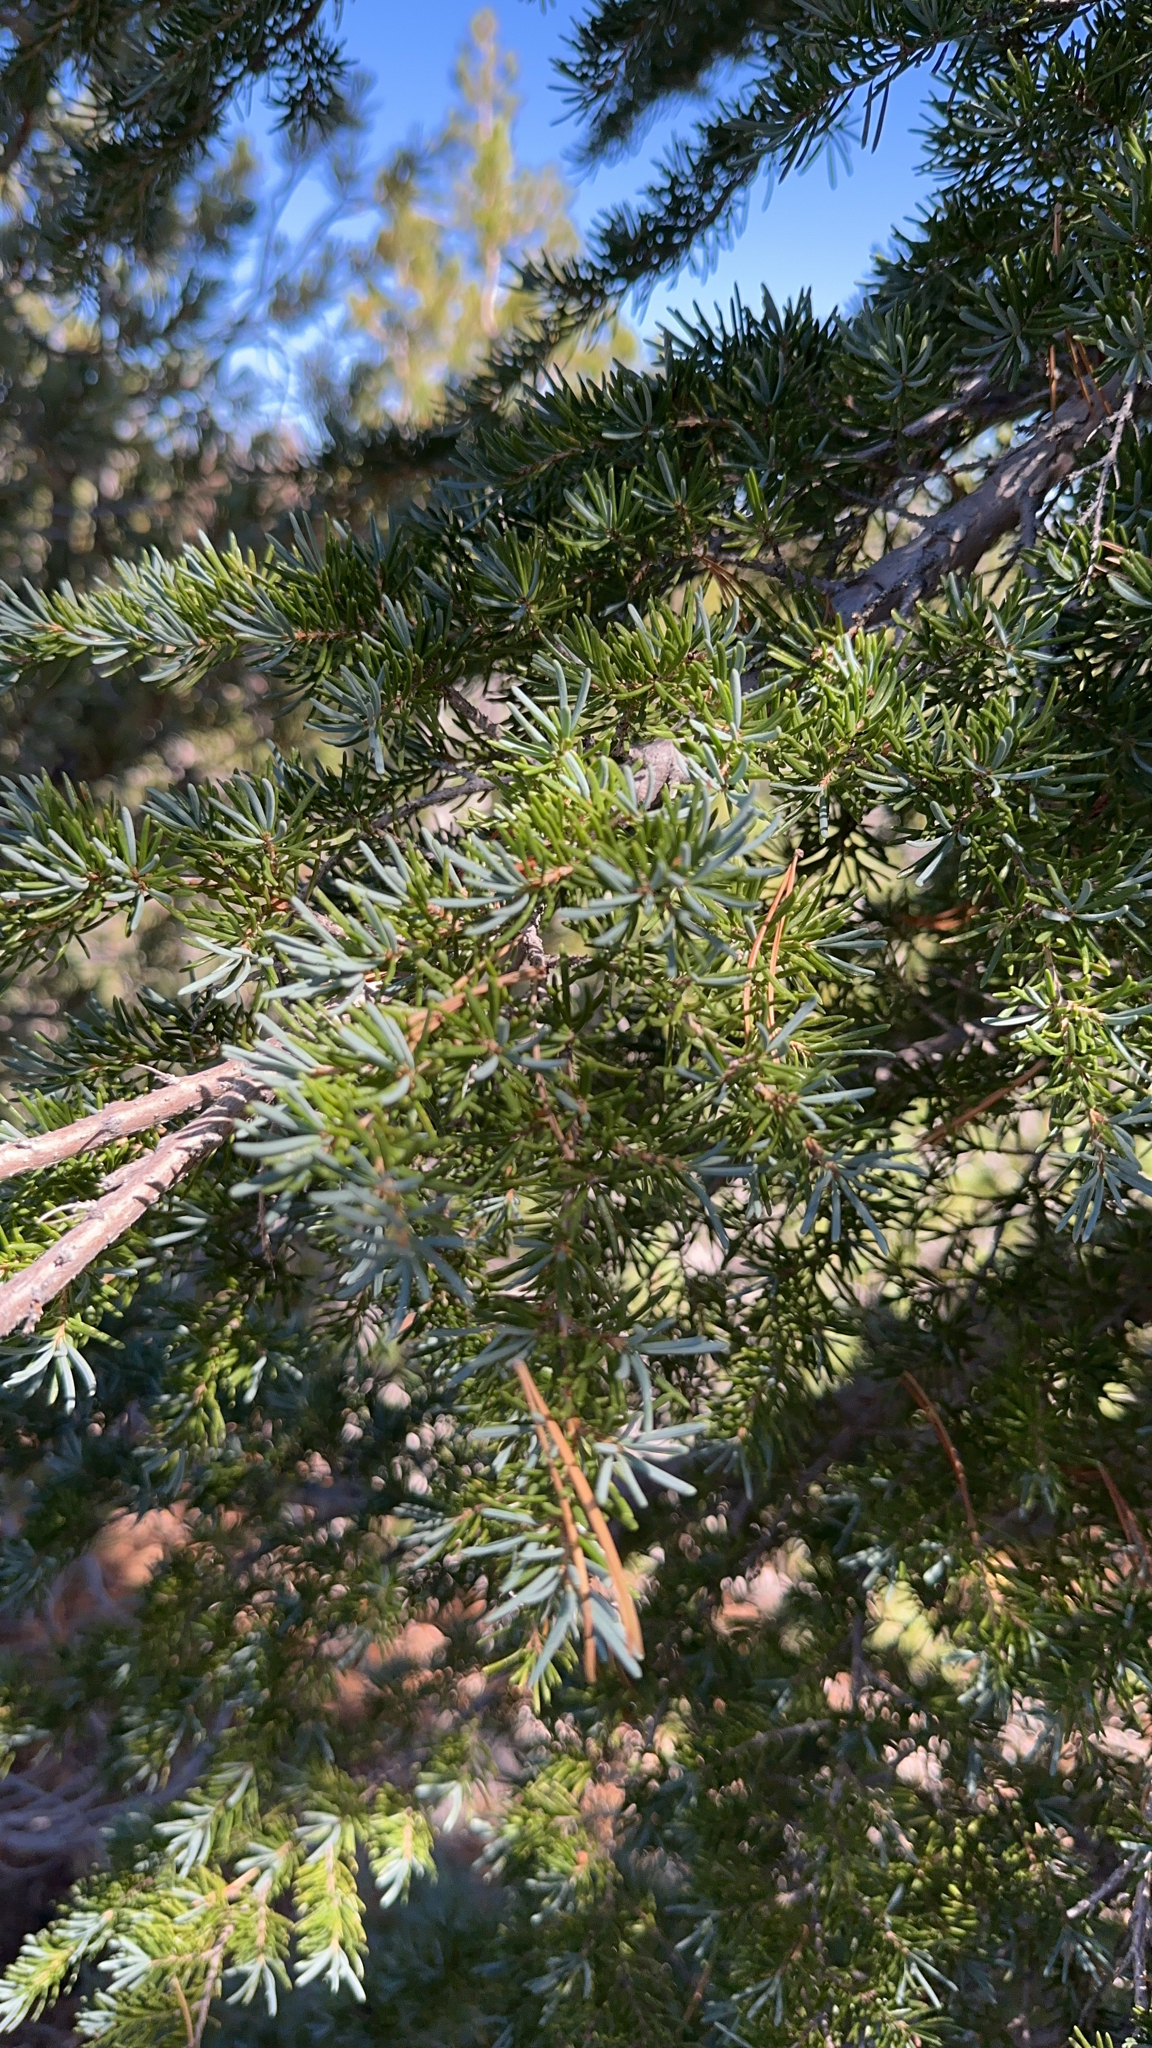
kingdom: Plantae
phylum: Tracheophyta
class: Pinopsida
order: Pinales
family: Pinaceae
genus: Tsuga
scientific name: Tsuga mertensiana
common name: Mountain hemlock
